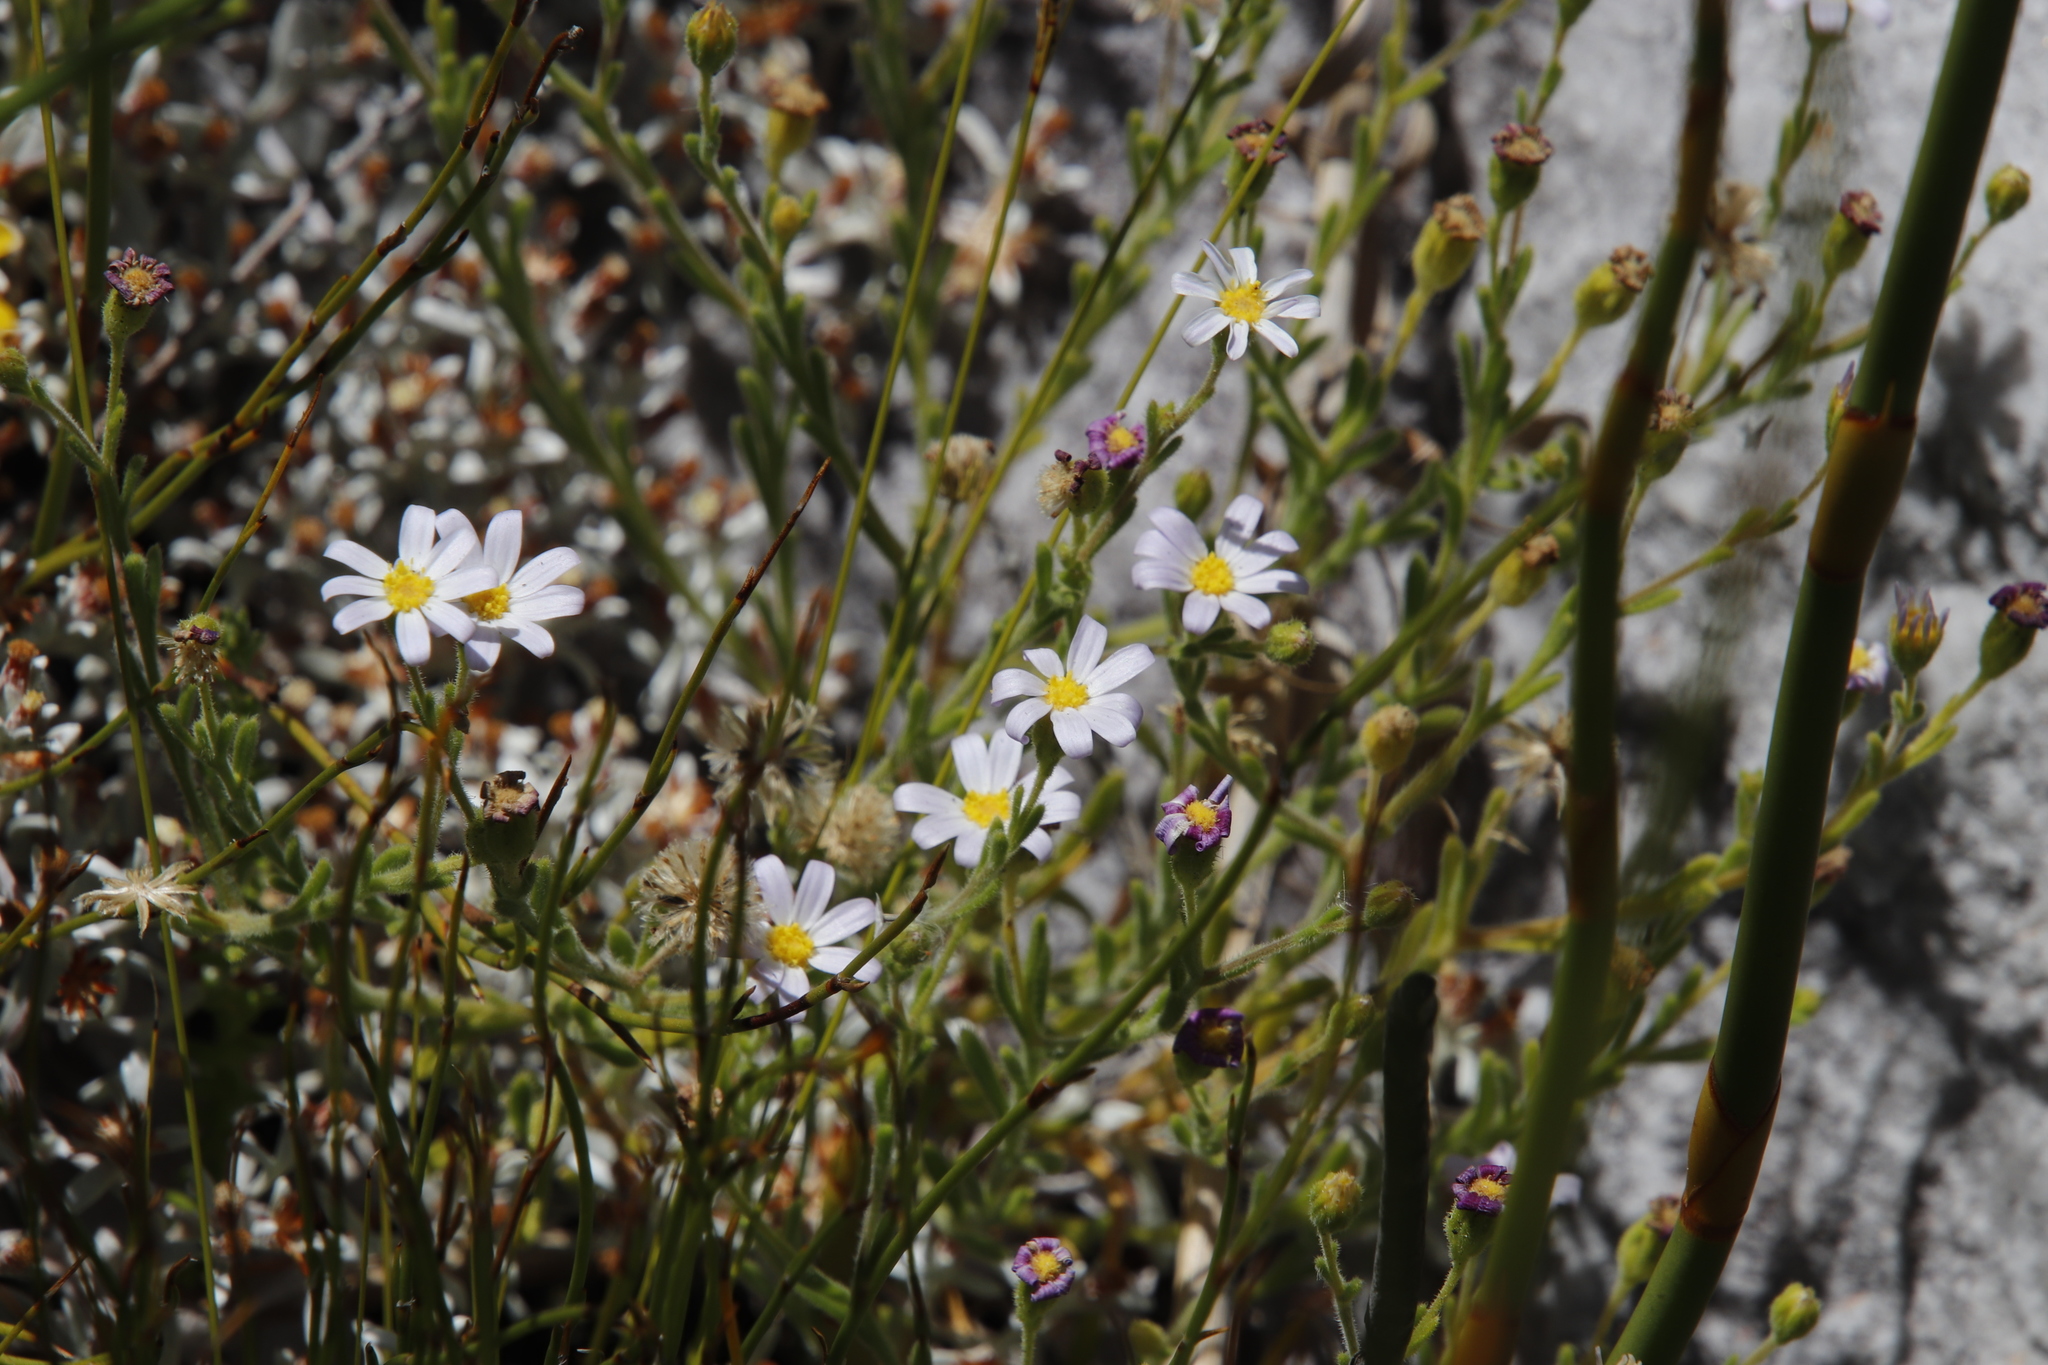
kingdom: Plantae
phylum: Tracheophyta
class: Magnoliopsida
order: Asterales
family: Asteraceae
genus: Zyrphelis
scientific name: Zyrphelis foliosa
